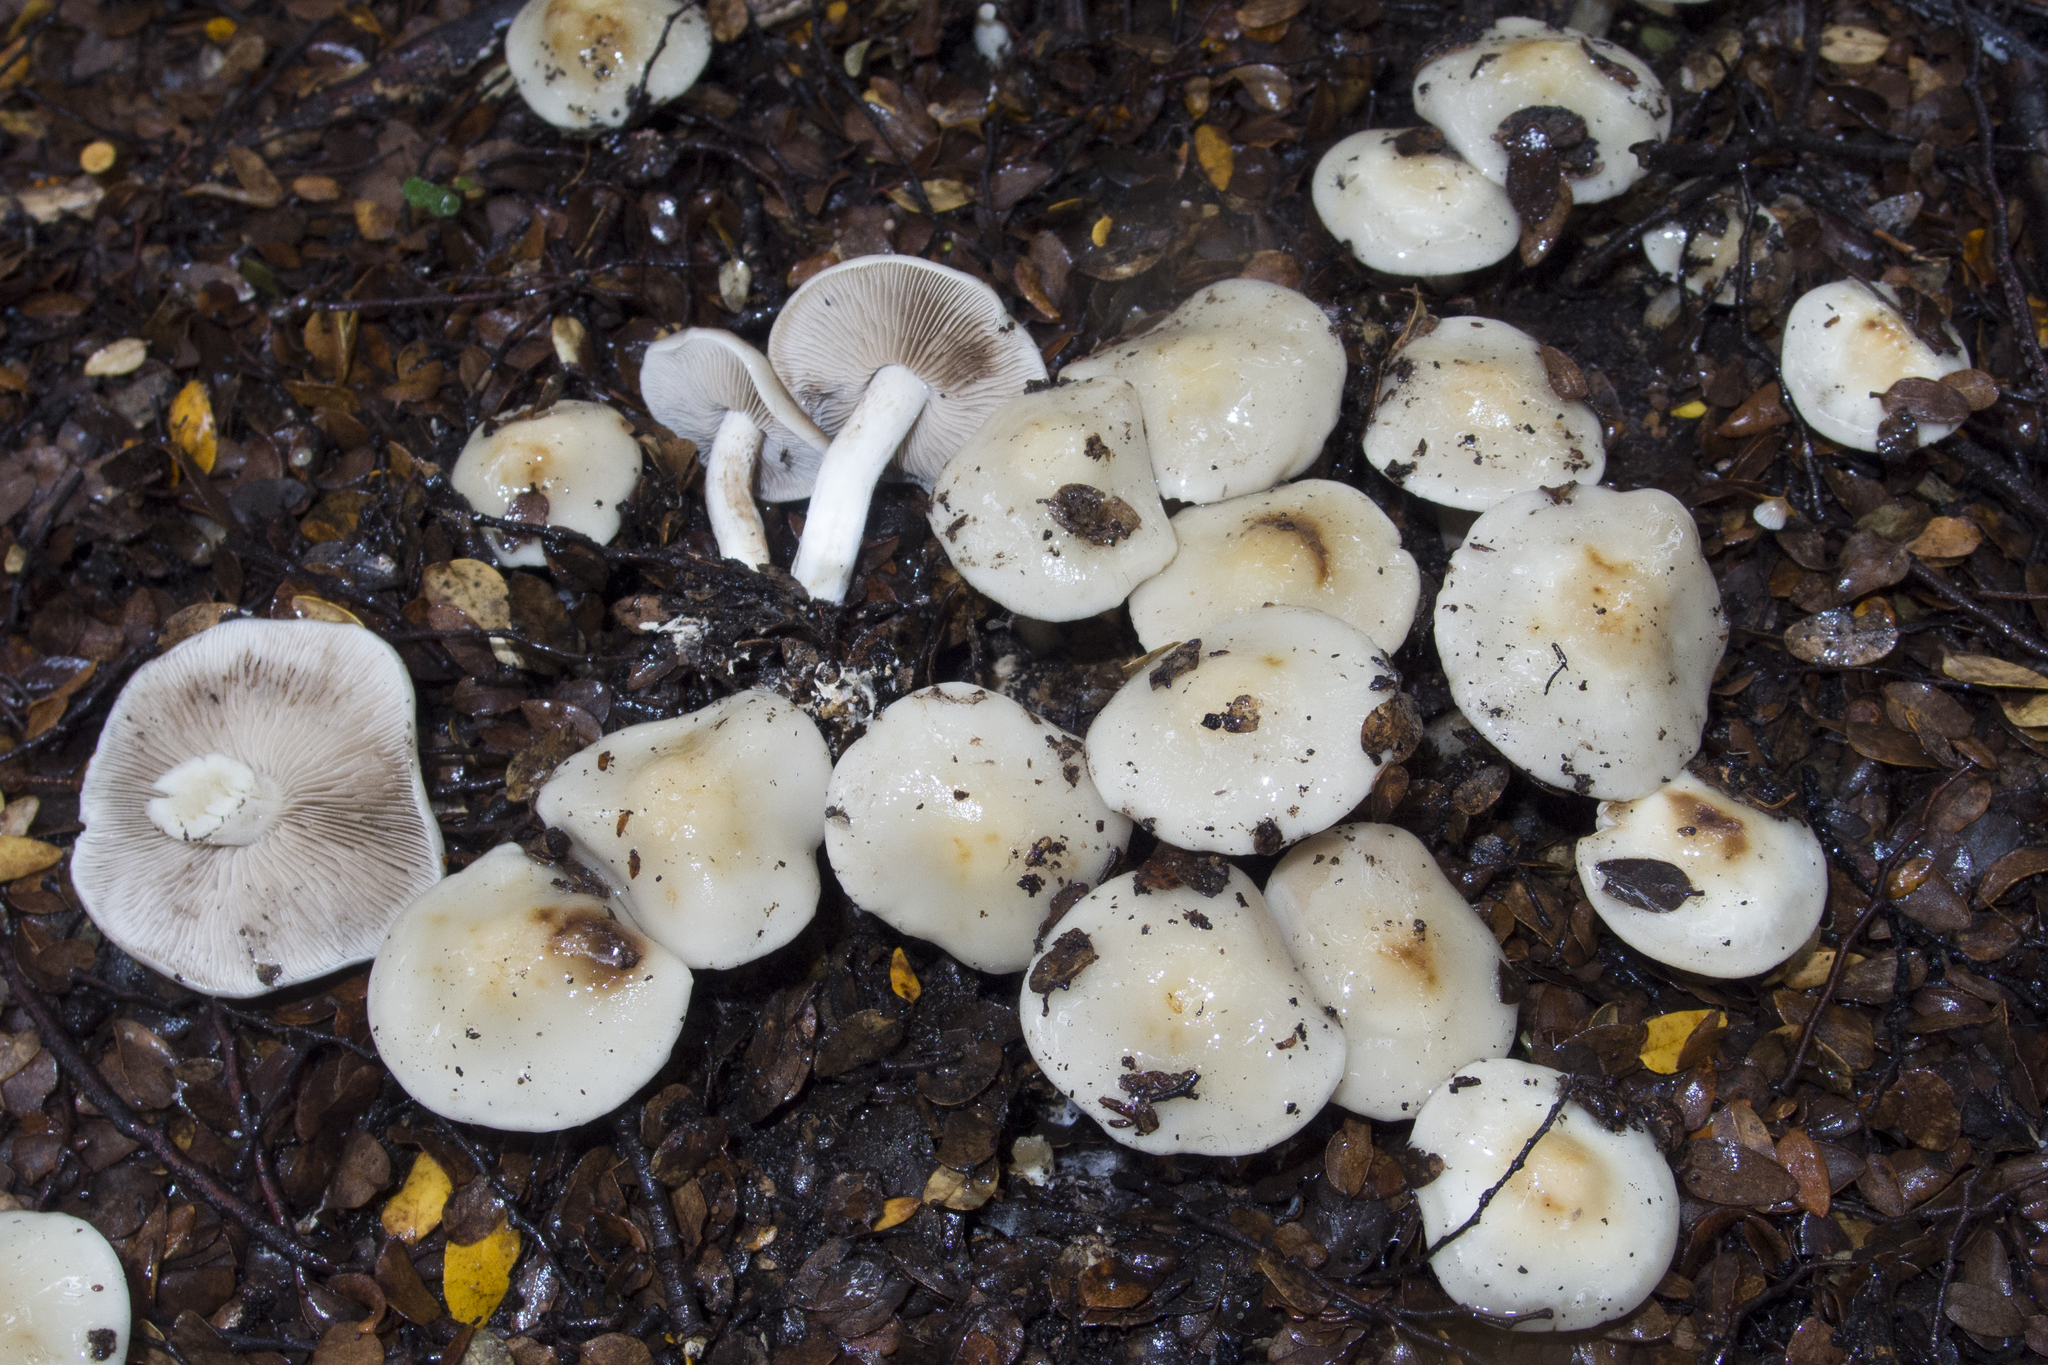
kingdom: Fungi
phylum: Basidiomycota
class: Agaricomycetes
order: Agaricales
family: Hymenogastraceae
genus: Psathyloma
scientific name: Psathyloma leucocarpum
